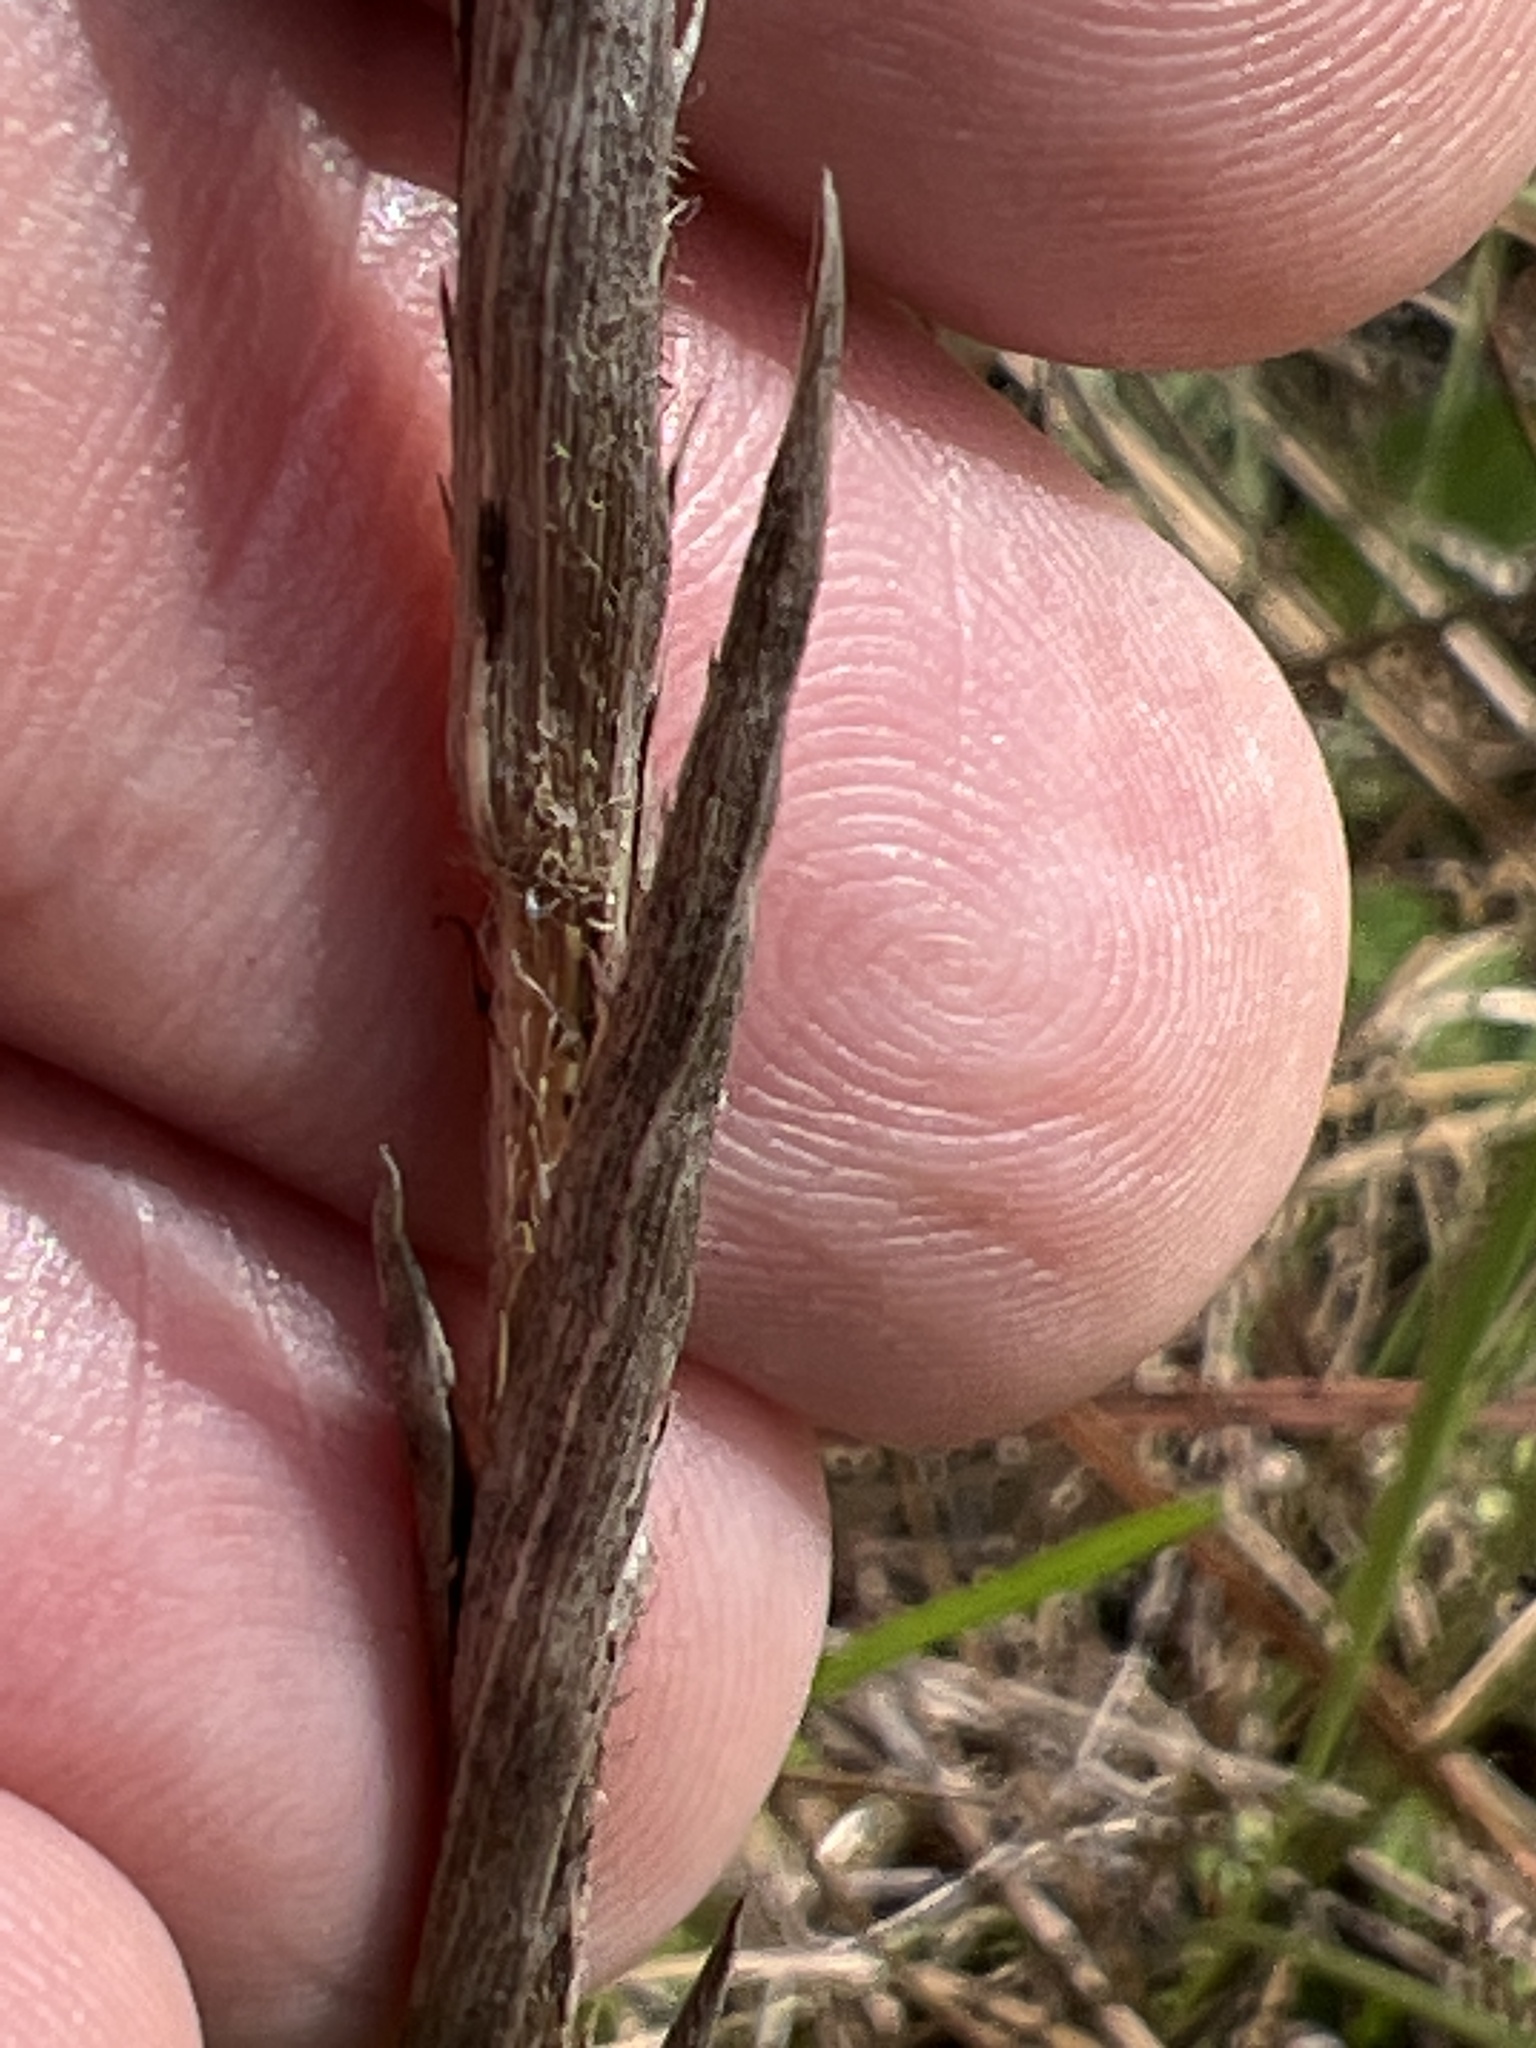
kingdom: Plantae
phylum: Tracheophyta
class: Magnoliopsida
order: Asterales
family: Asteraceae
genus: Eurybia
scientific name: Eurybia eryngiifolia
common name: Thistle-leaf aster
